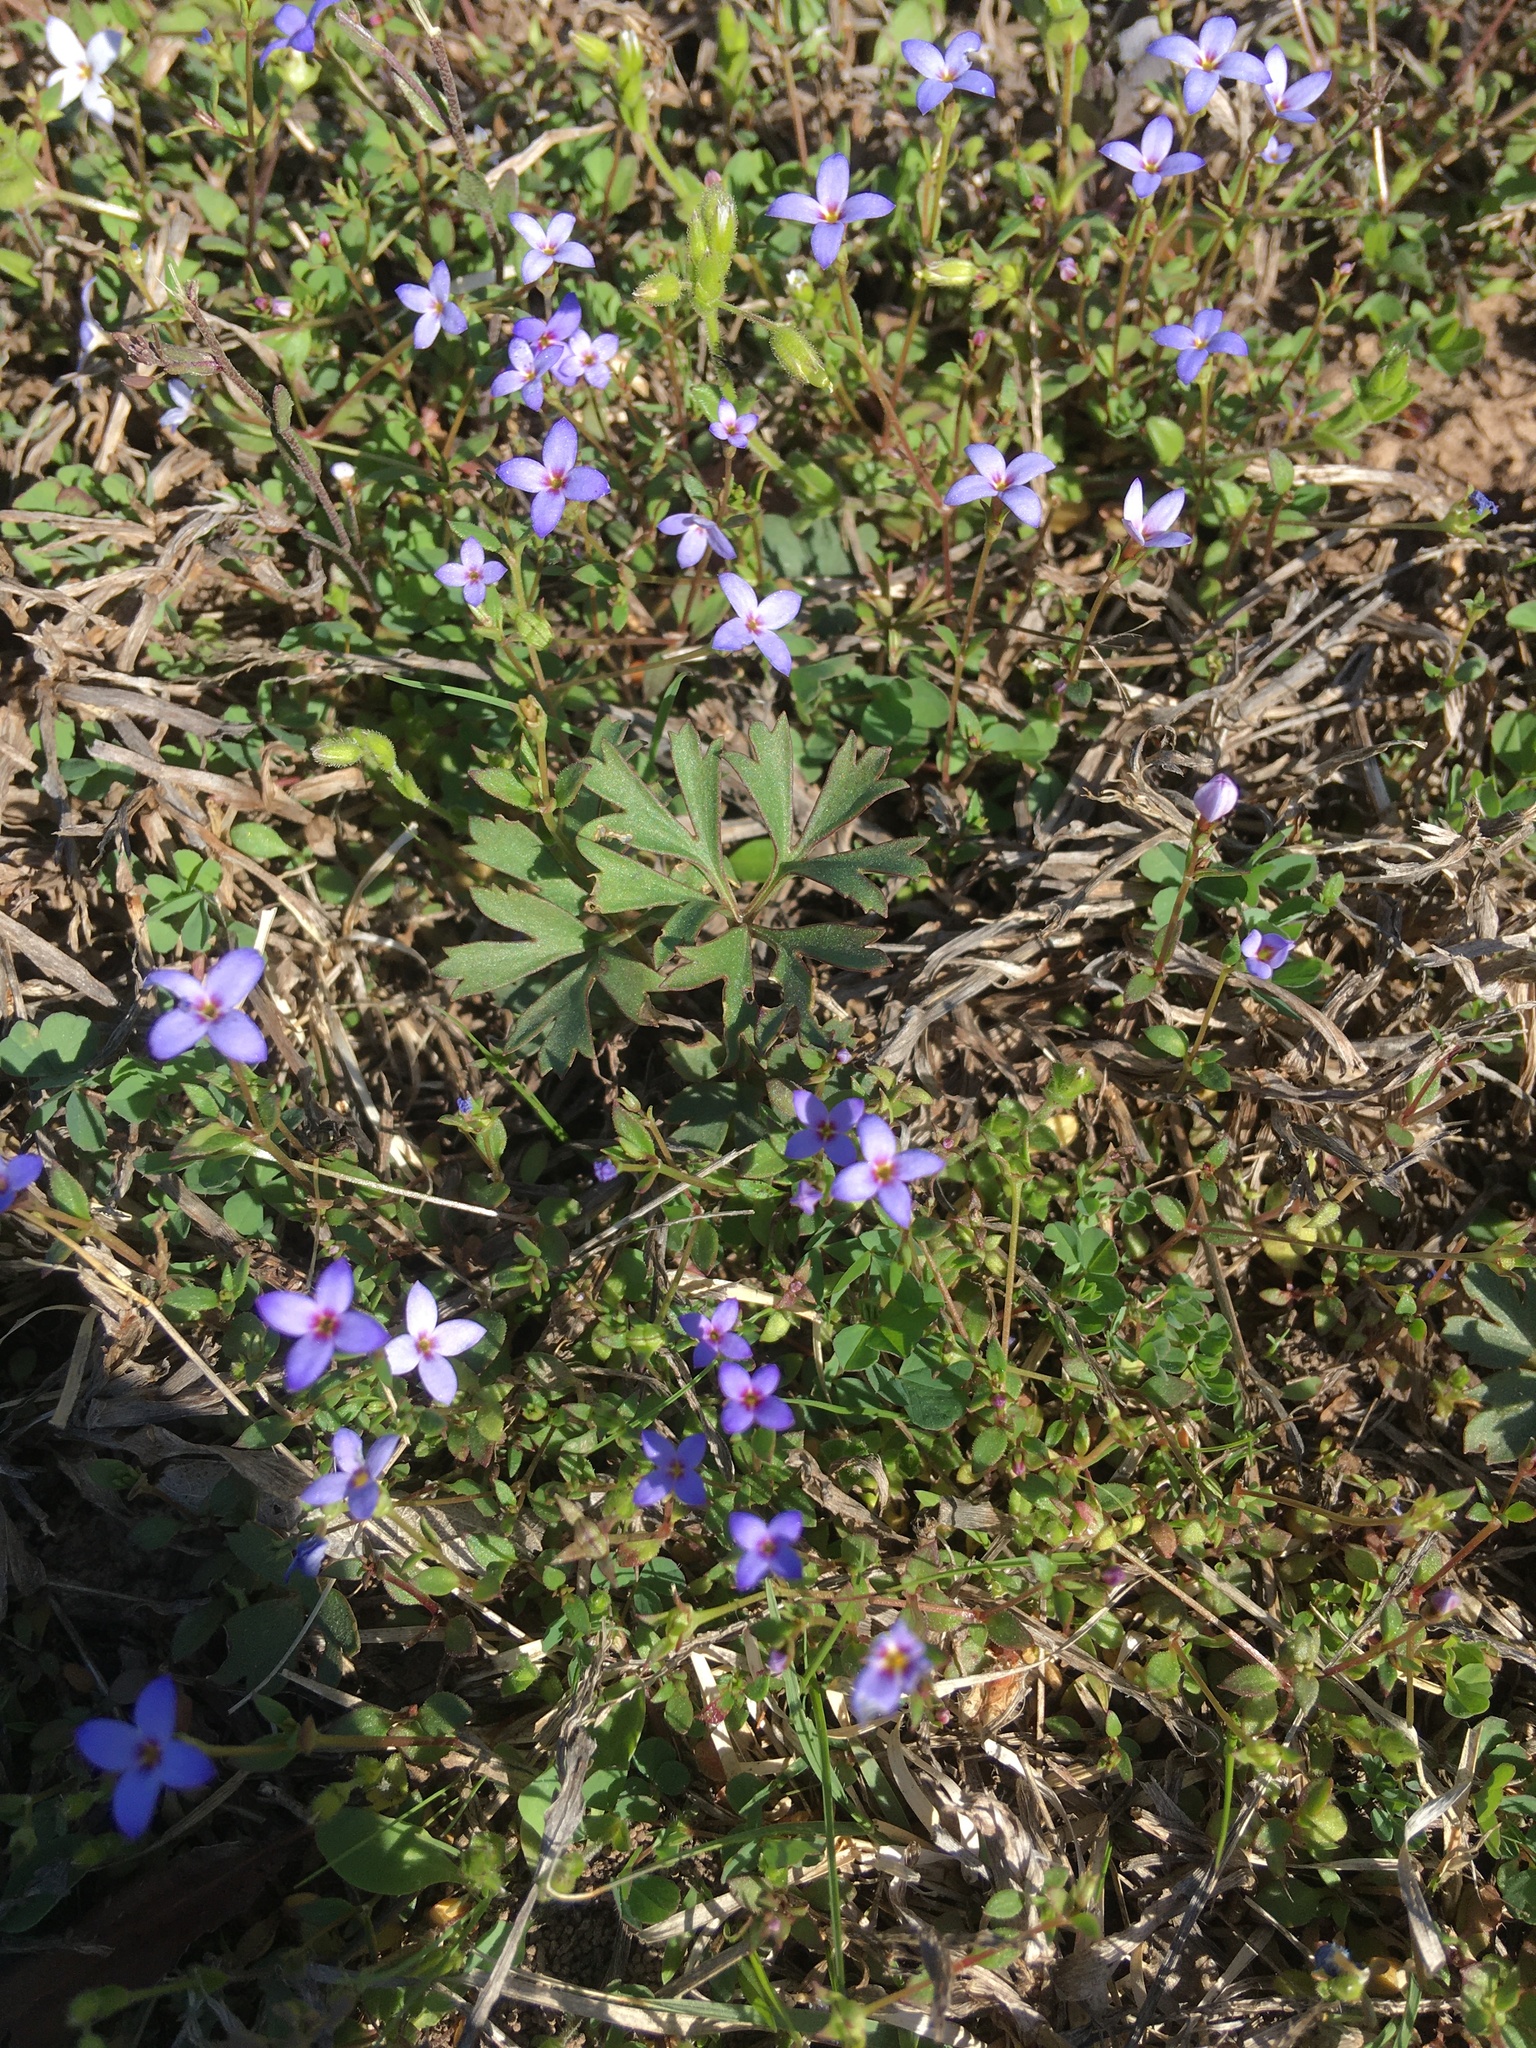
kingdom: Plantae
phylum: Tracheophyta
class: Magnoliopsida
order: Gentianales
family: Rubiaceae
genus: Houstonia
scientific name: Houstonia pusilla
